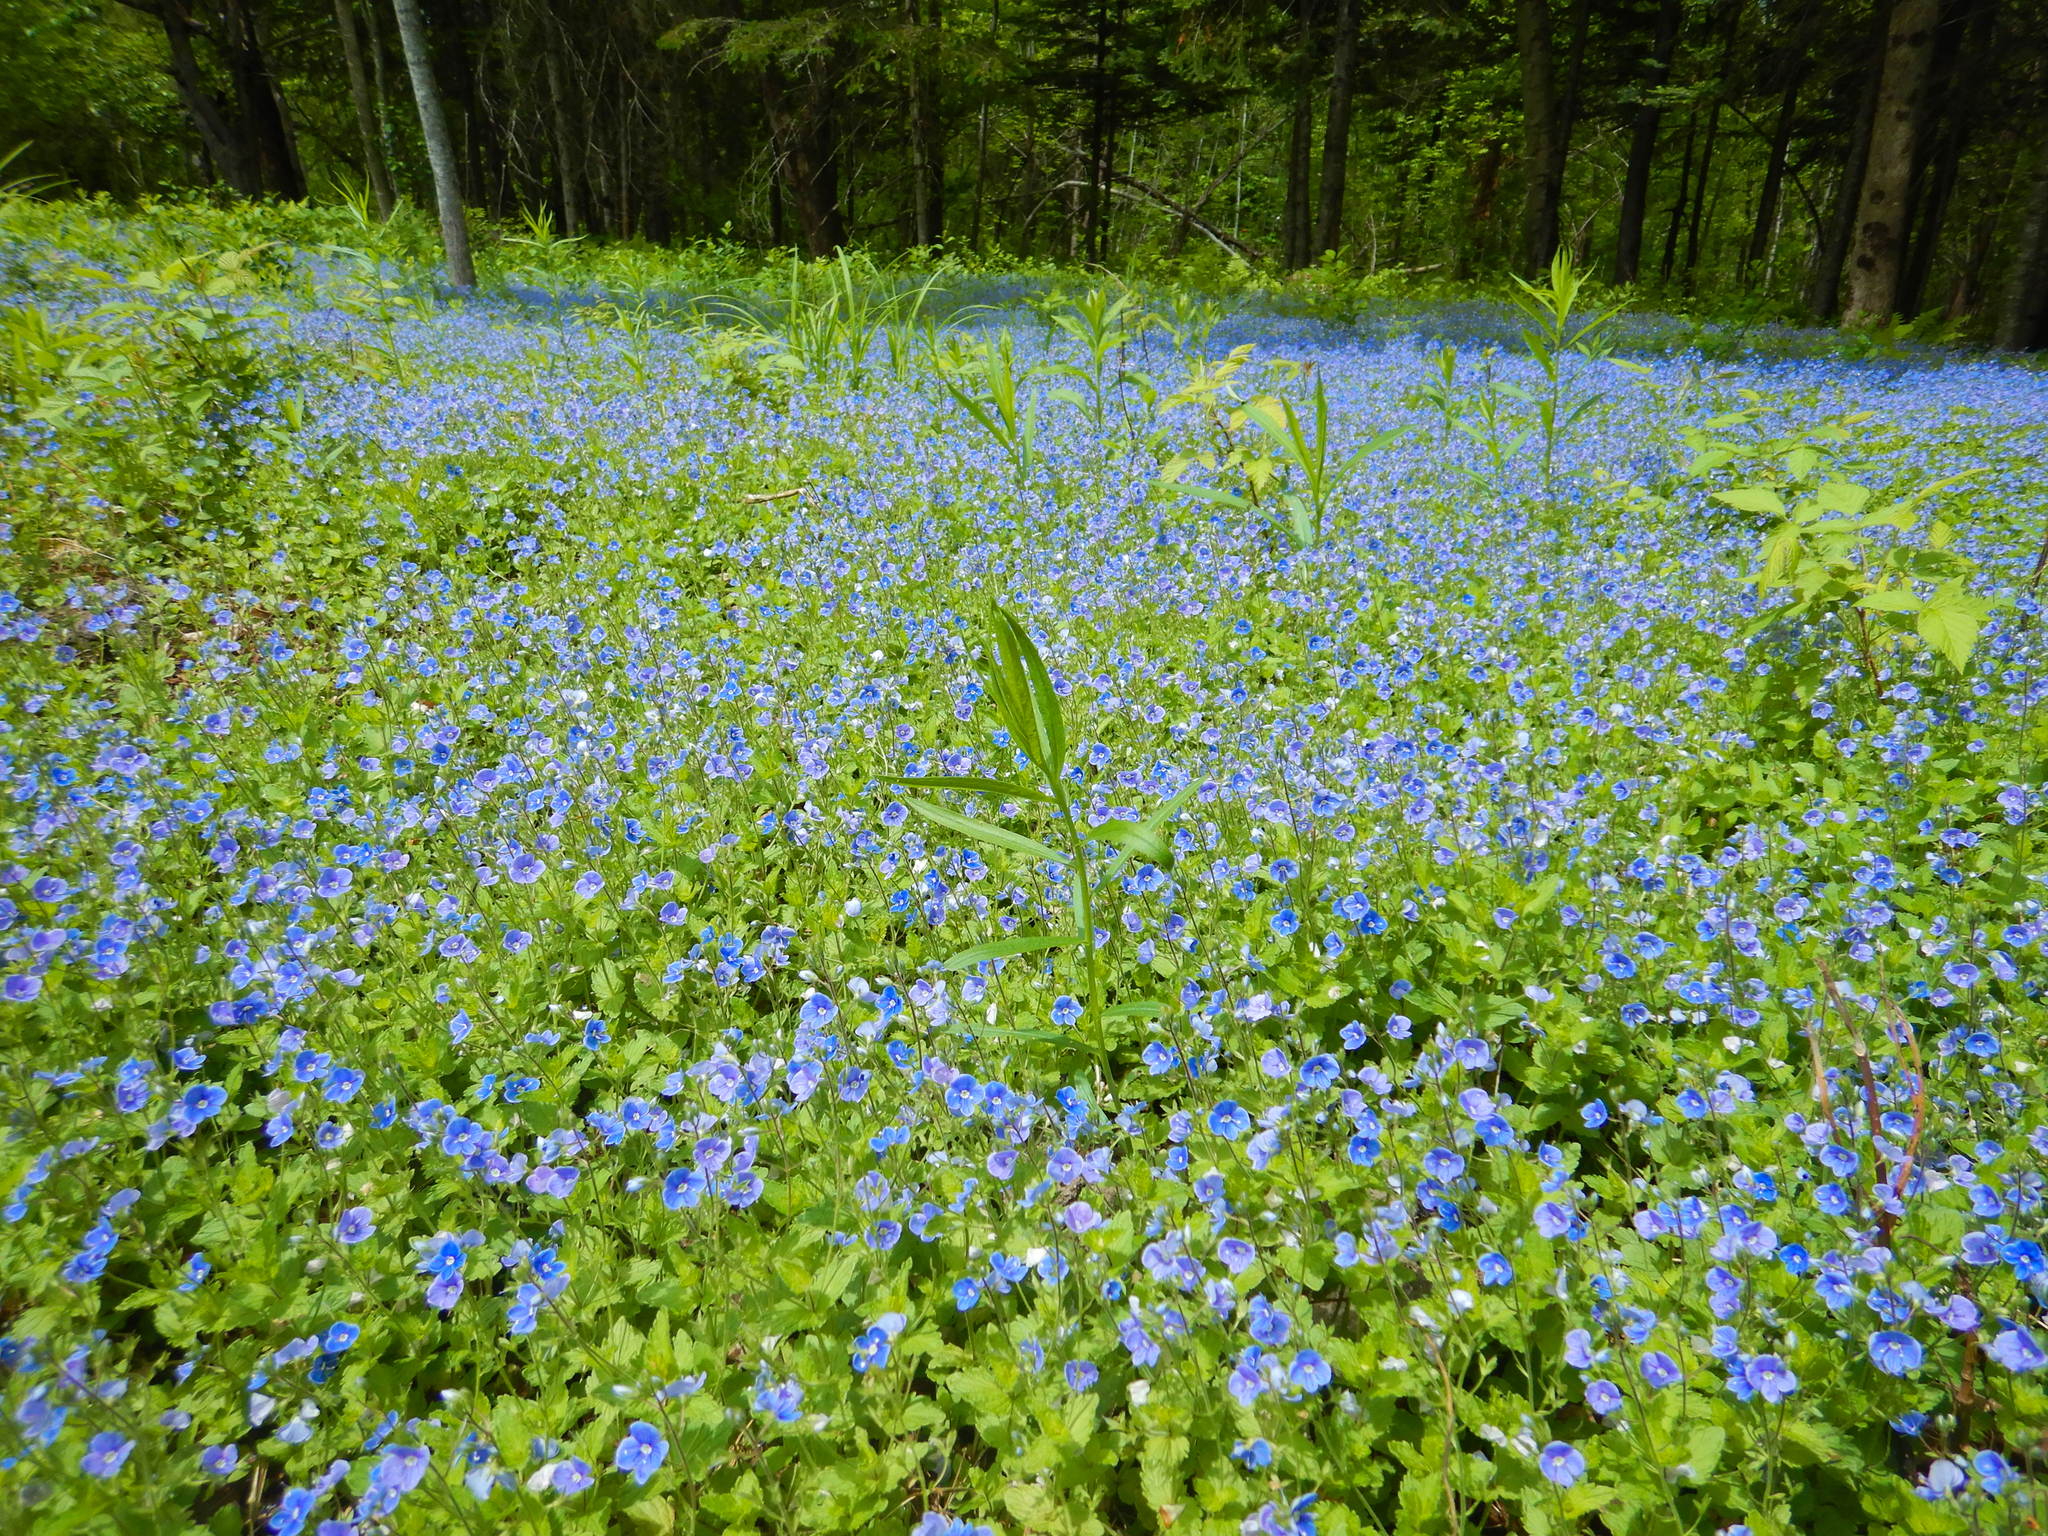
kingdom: Plantae
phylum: Tracheophyta
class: Magnoliopsida
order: Lamiales
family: Plantaginaceae
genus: Veronica
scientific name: Veronica chamaedrys
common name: Germander speedwell
